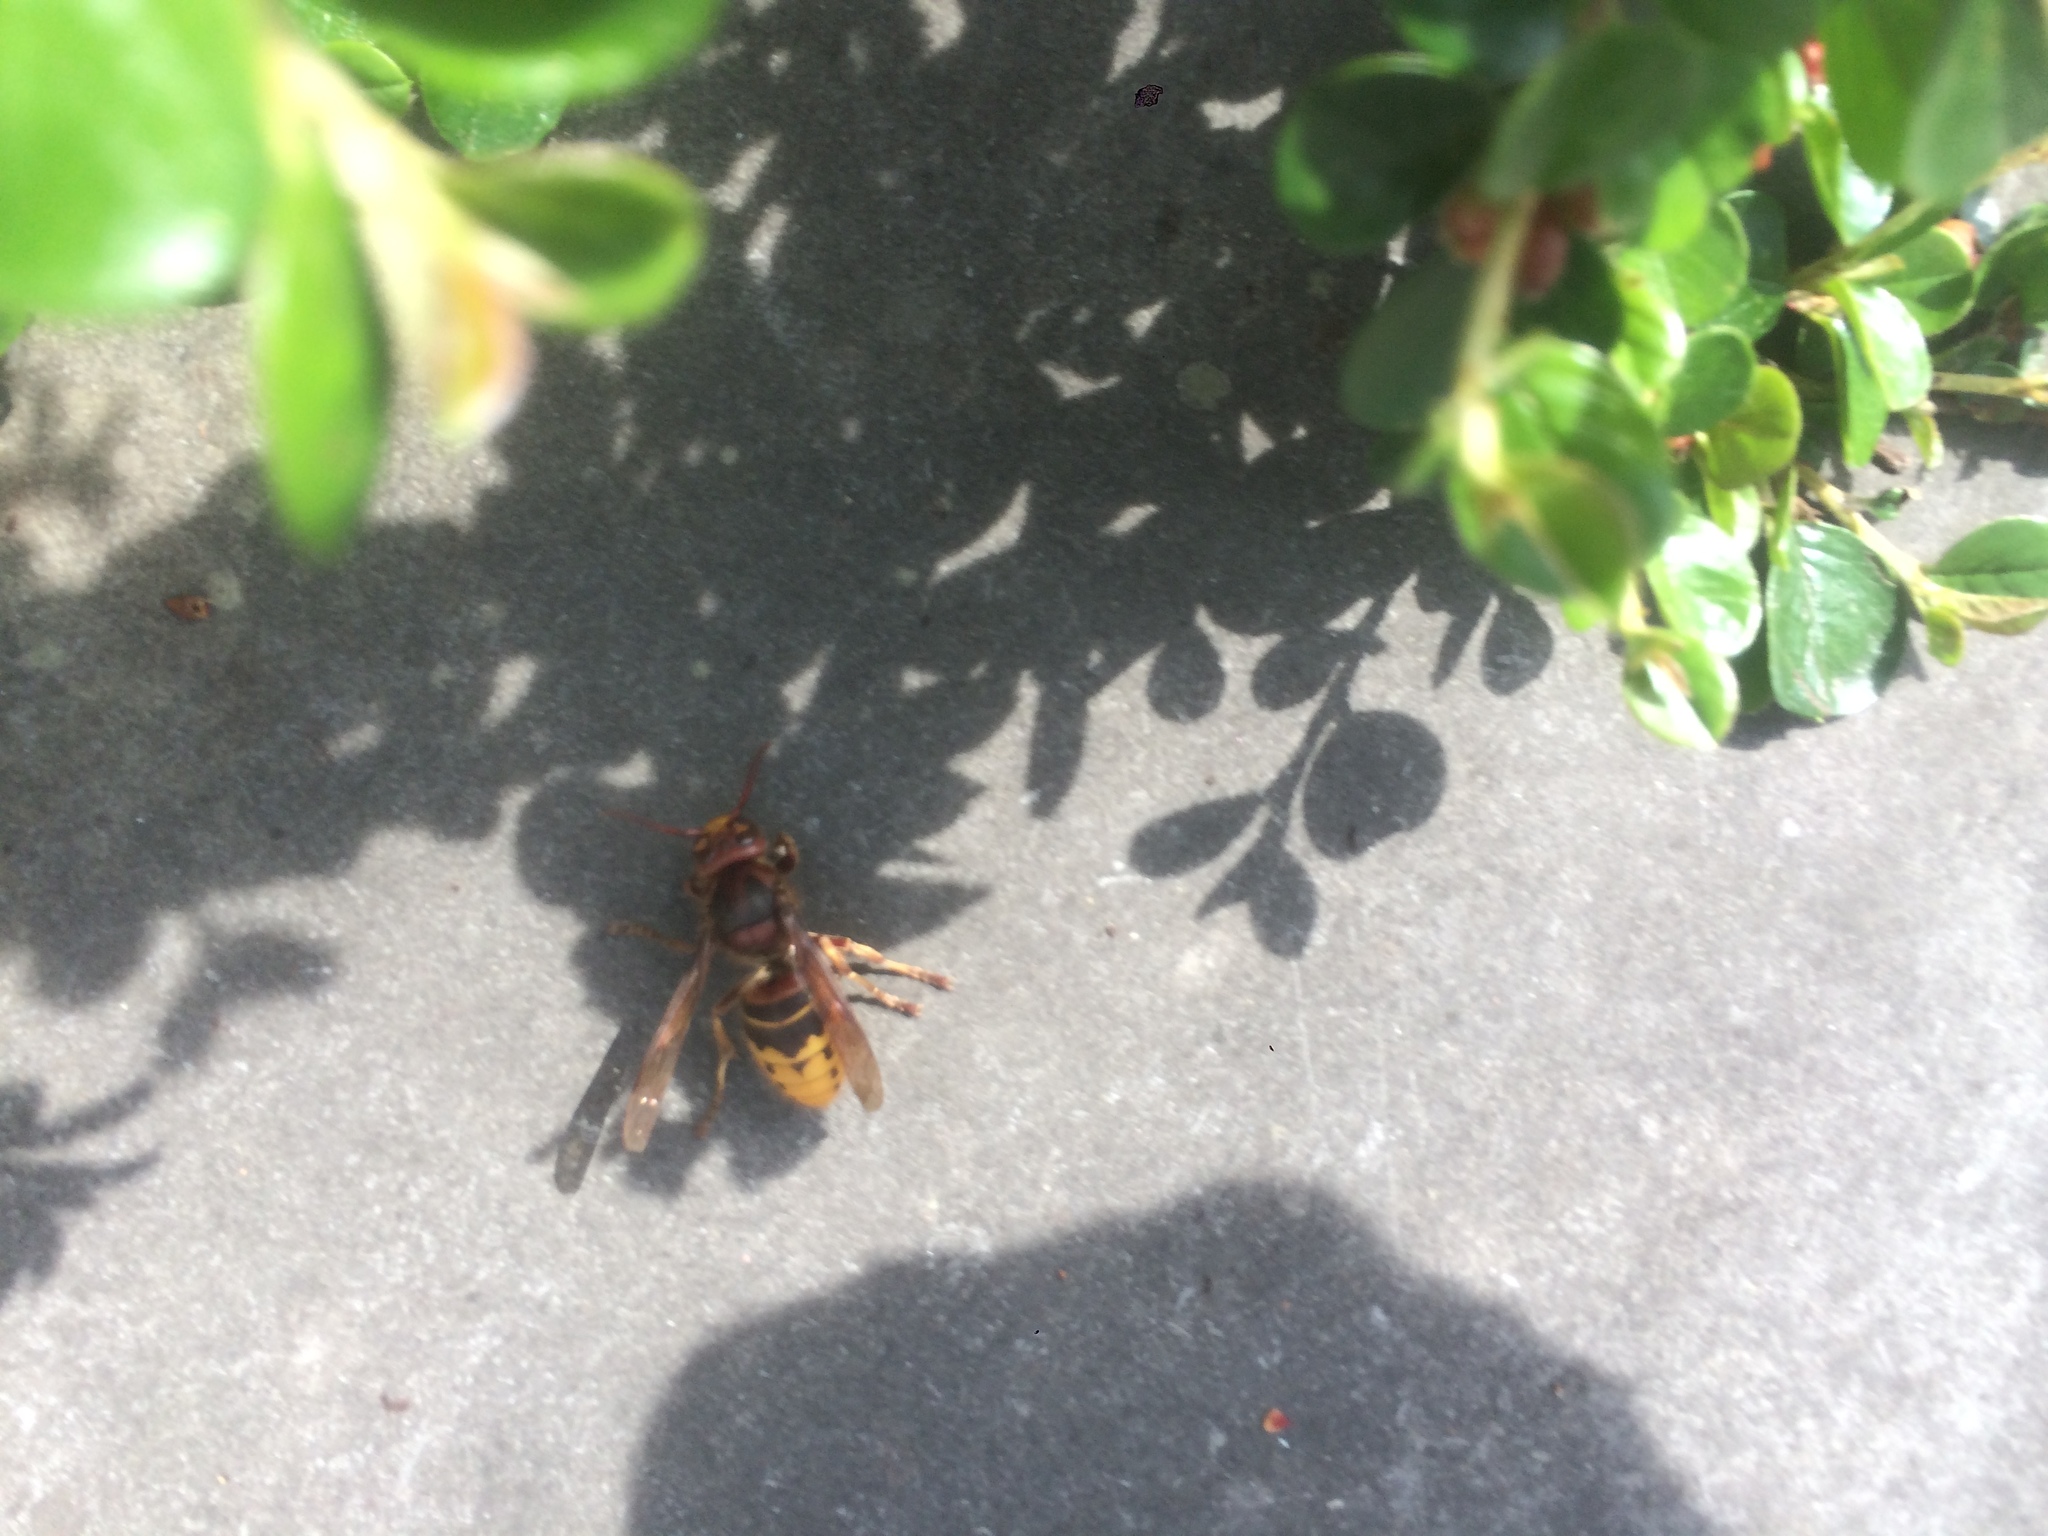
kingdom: Animalia
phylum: Arthropoda
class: Insecta
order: Hymenoptera
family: Vespidae
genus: Vespa
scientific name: Vespa crabro
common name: Hornet
